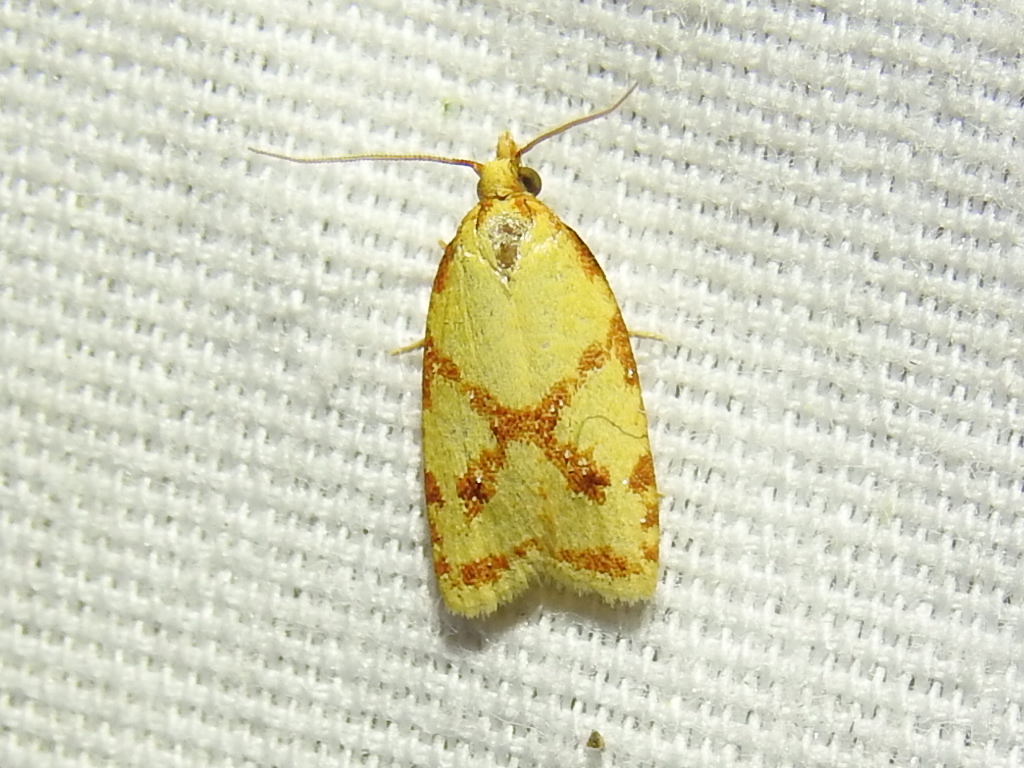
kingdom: Animalia
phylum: Arthropoda
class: Insecta
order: Lepidoptera
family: Tortricidae
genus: Sparganothis
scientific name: Sparganothis sulfureana
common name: Sparganothis fruitworm moth
